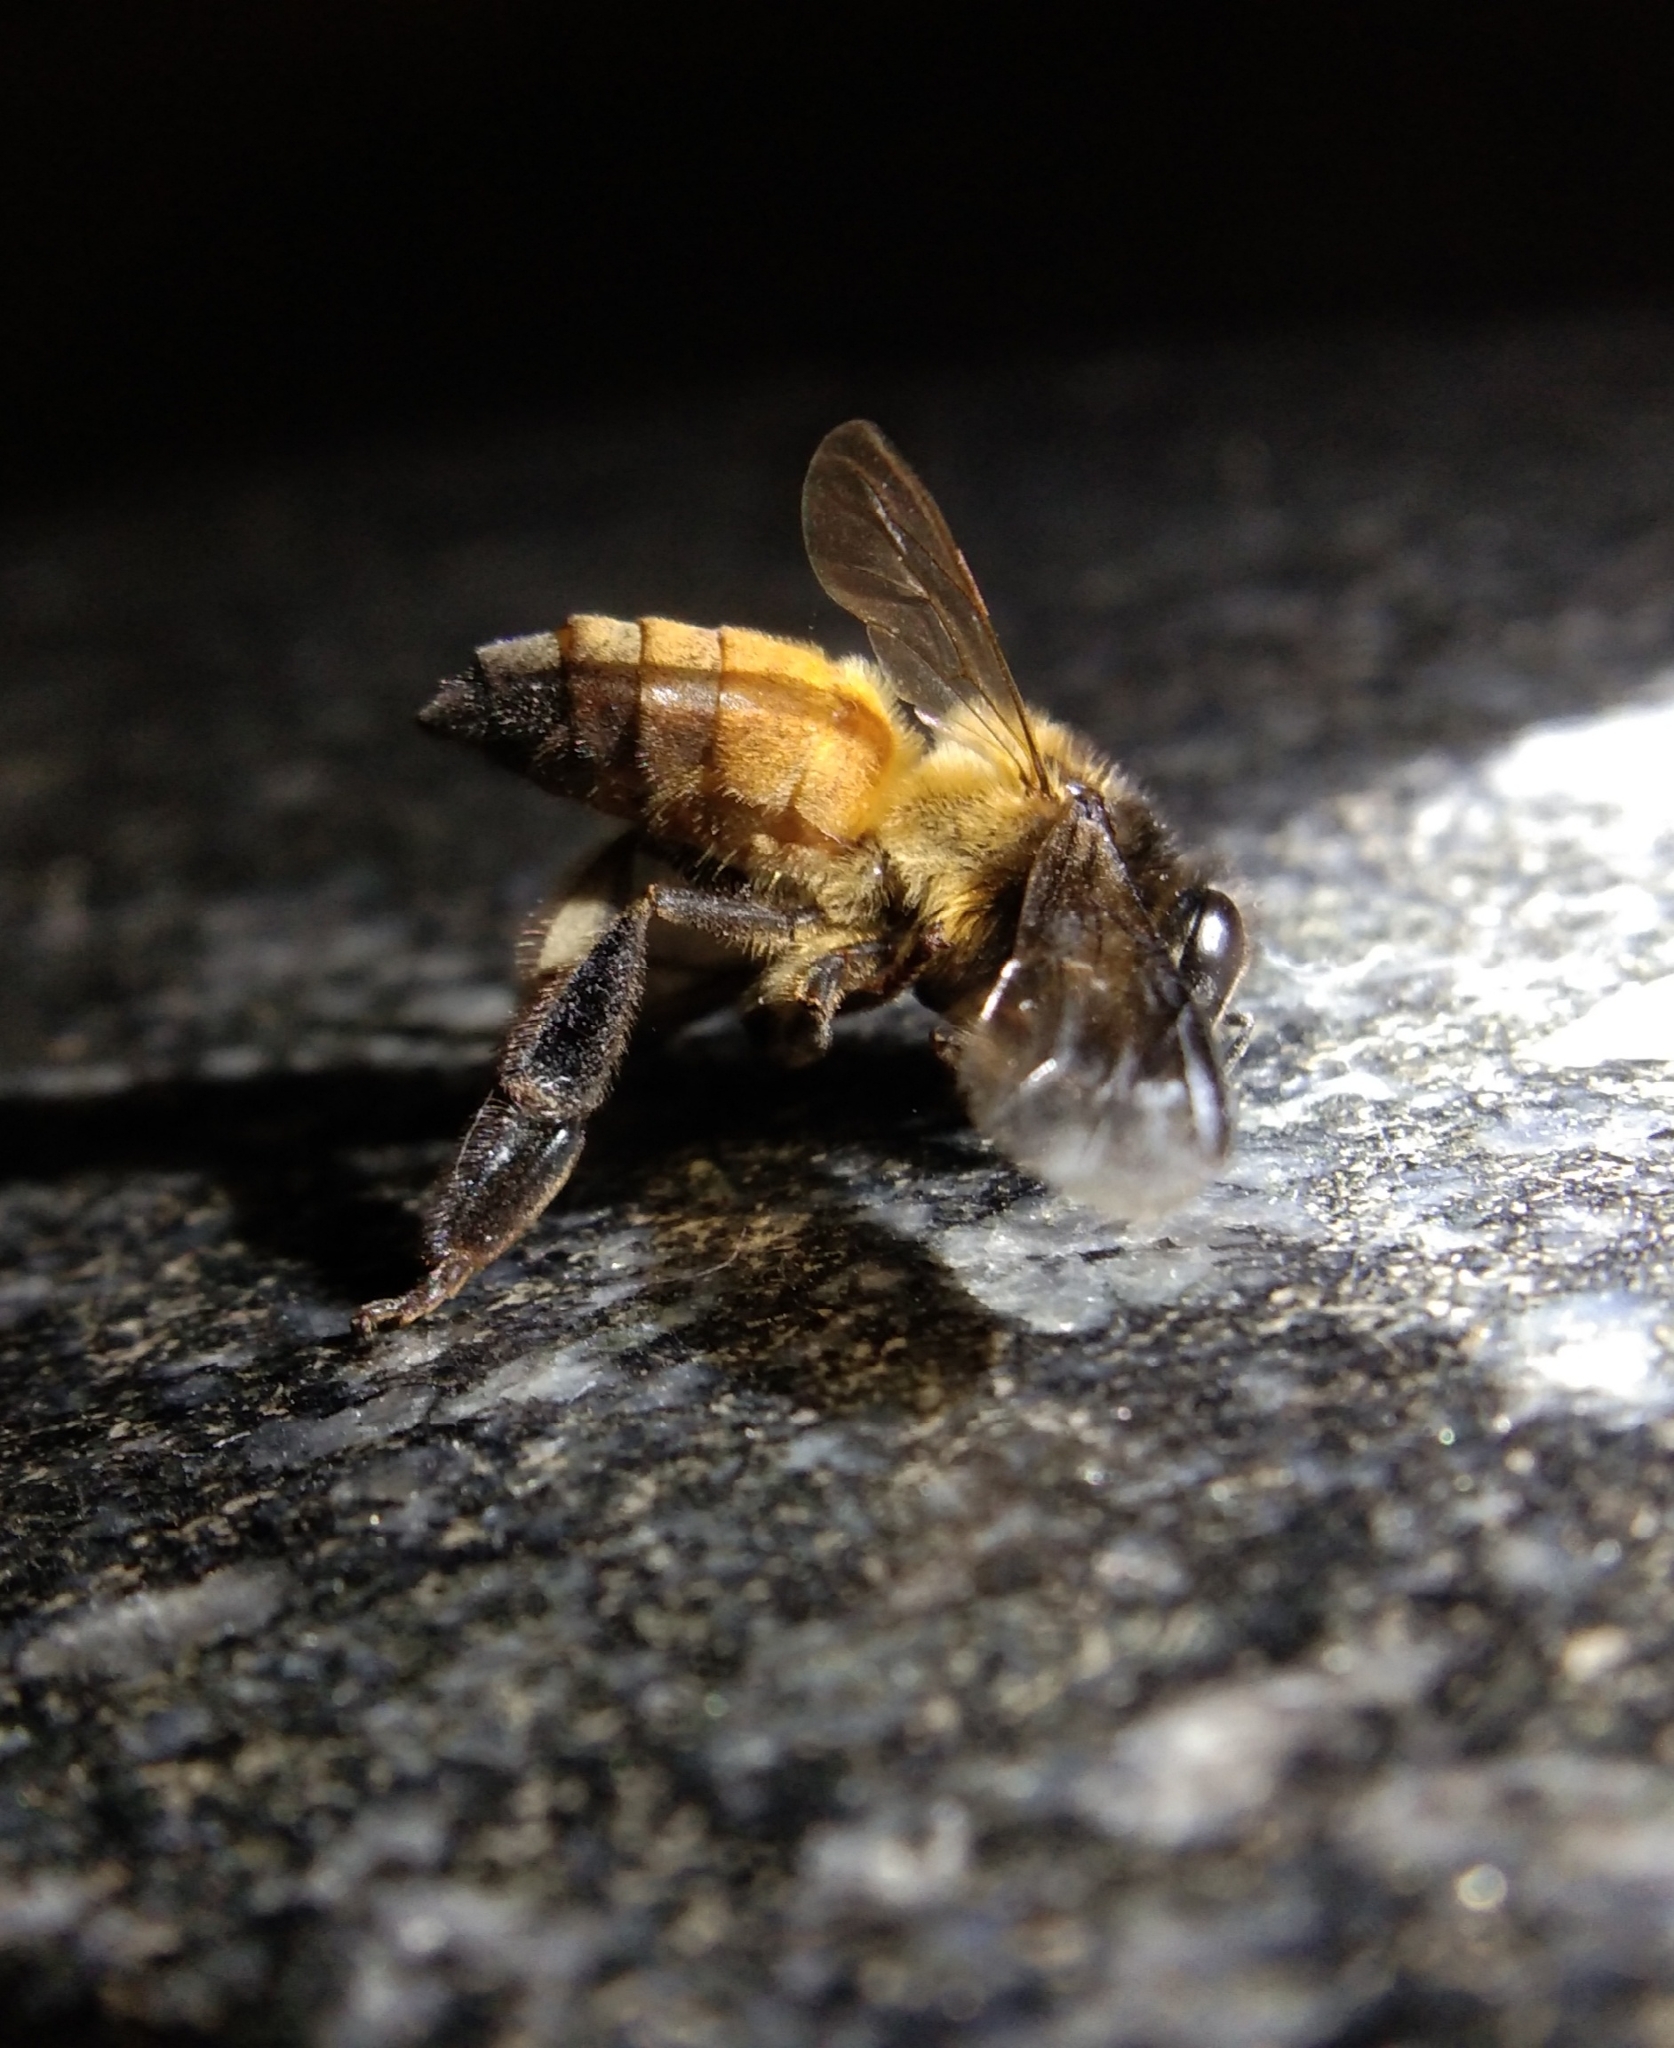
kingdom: Animalia
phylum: Arthropoda
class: Insecta
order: Hymenoptera
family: Apidae
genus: Apis
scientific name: Apis dorsata
